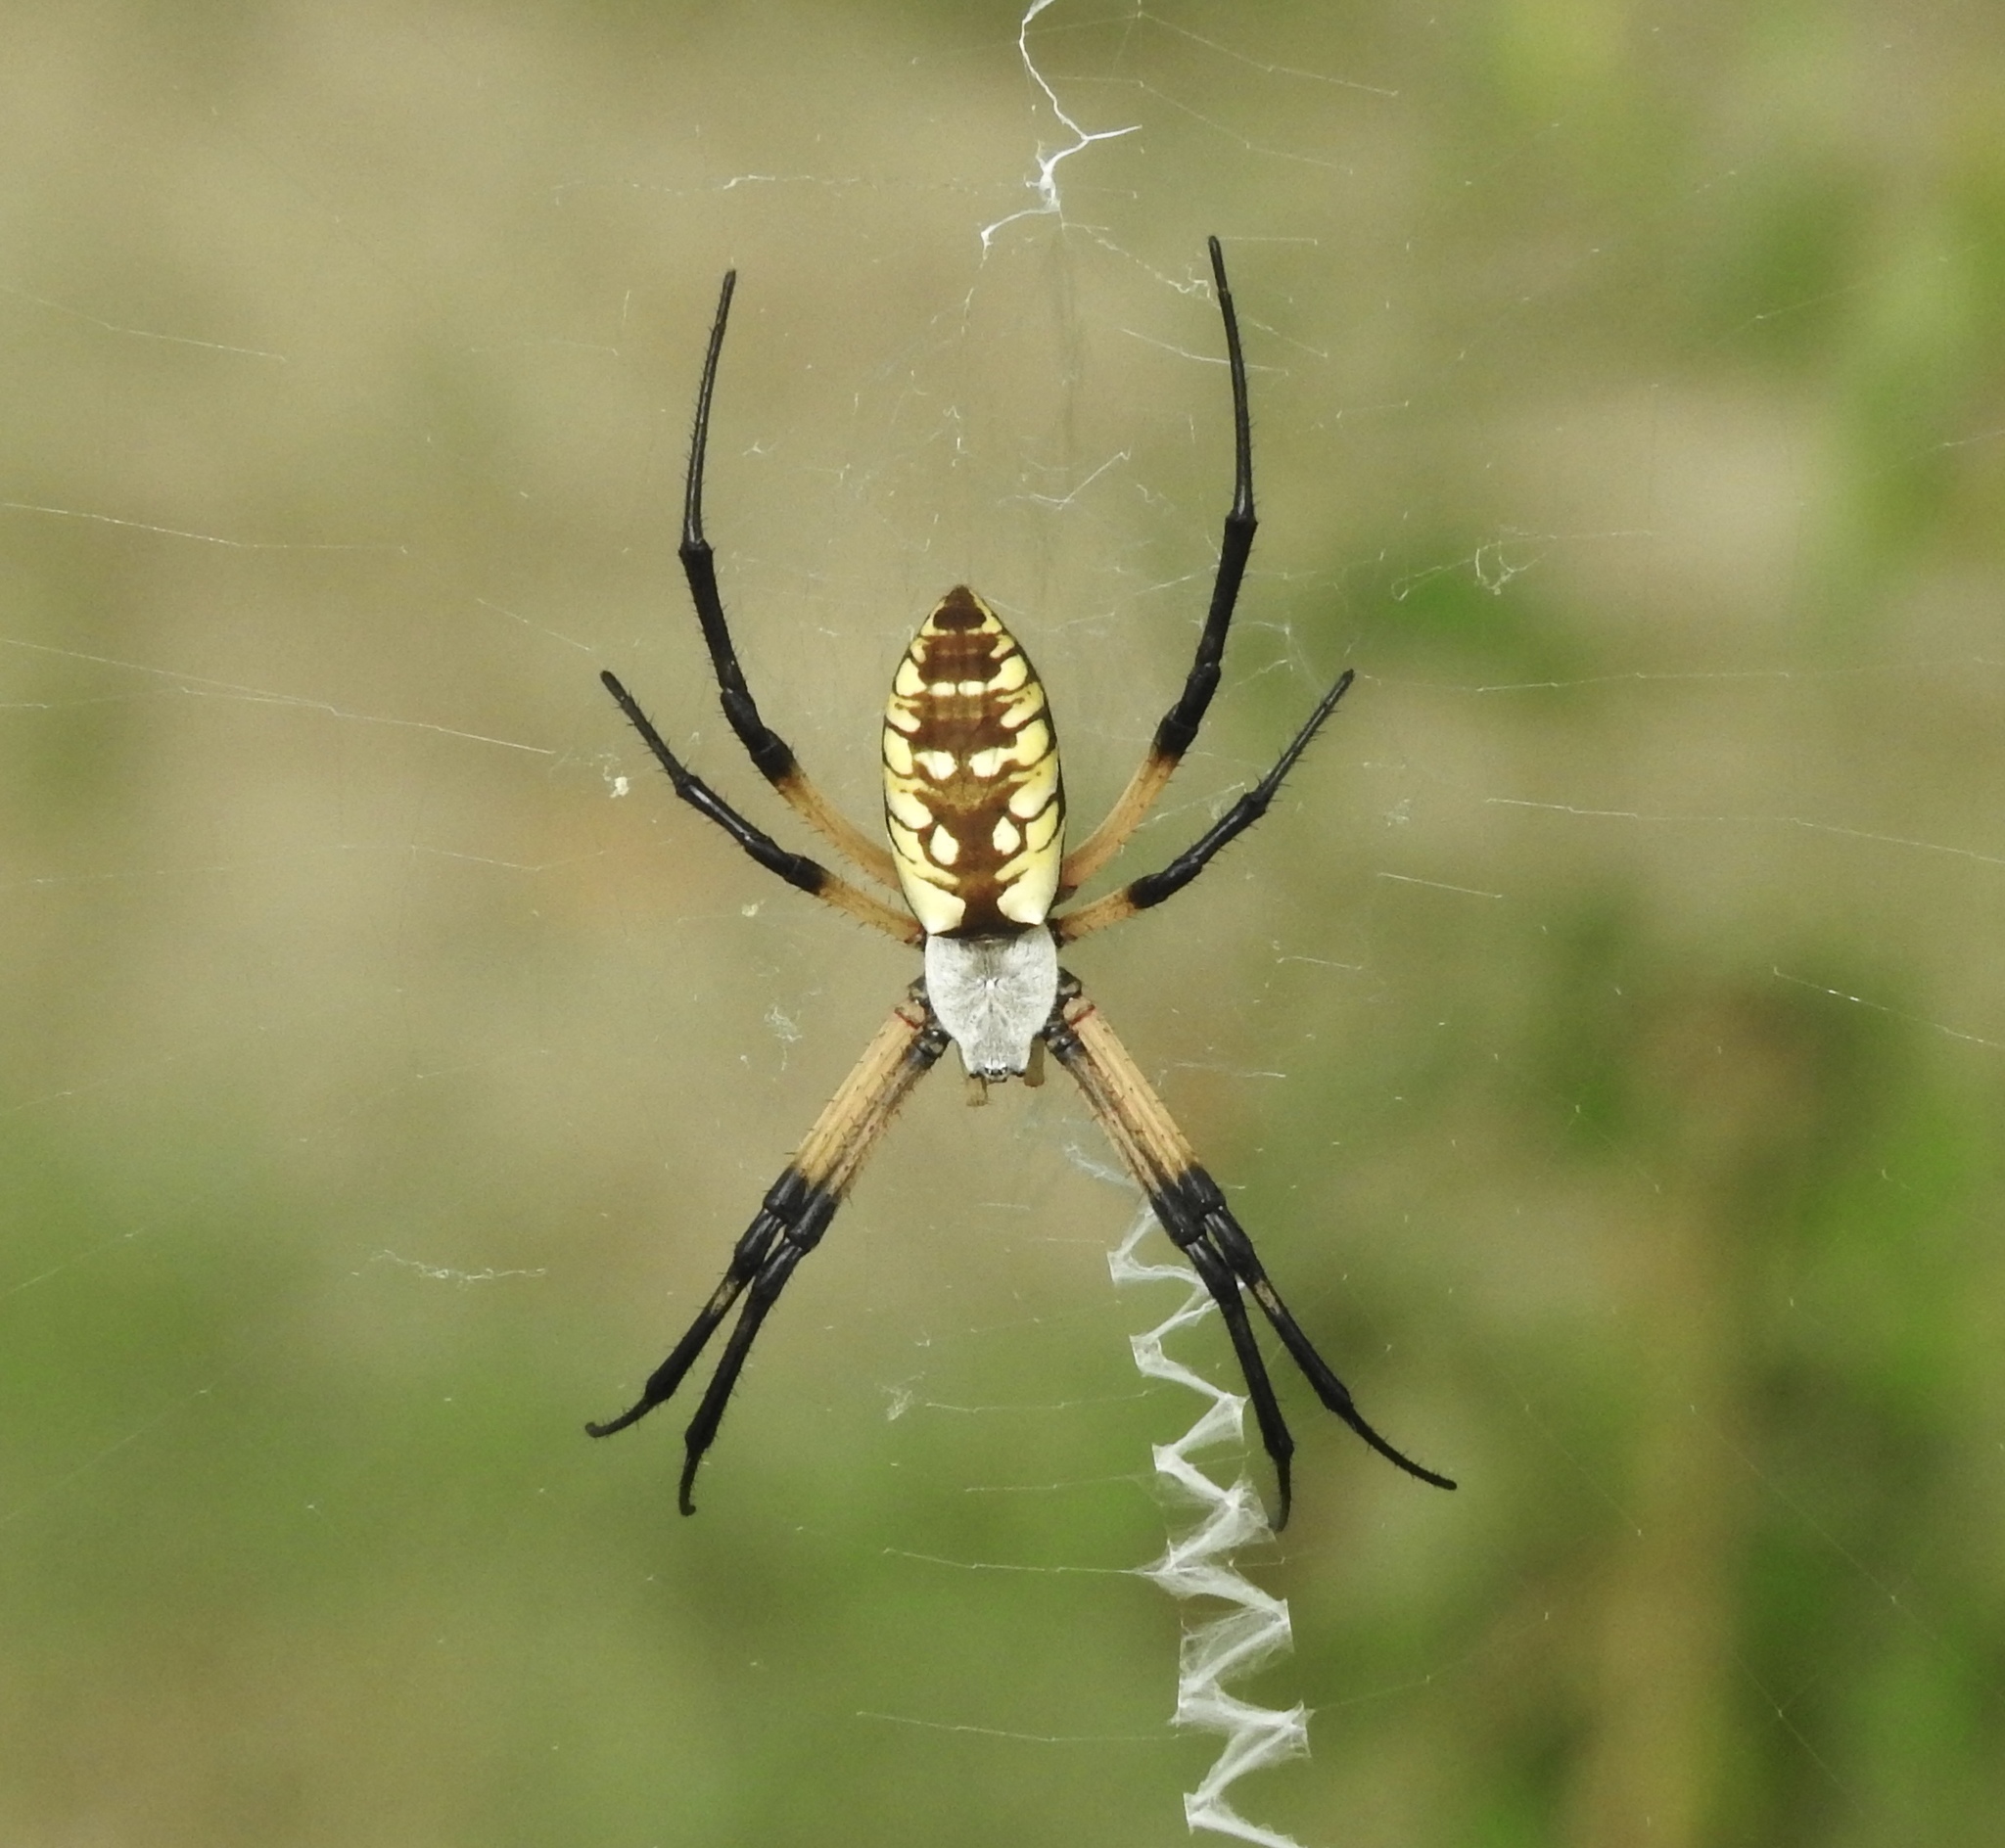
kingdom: Animalia
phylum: Arthropoda
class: Arachnida
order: Araneae
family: Araneidae
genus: Argiope
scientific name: Argiope aurantia
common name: Orb weavers
